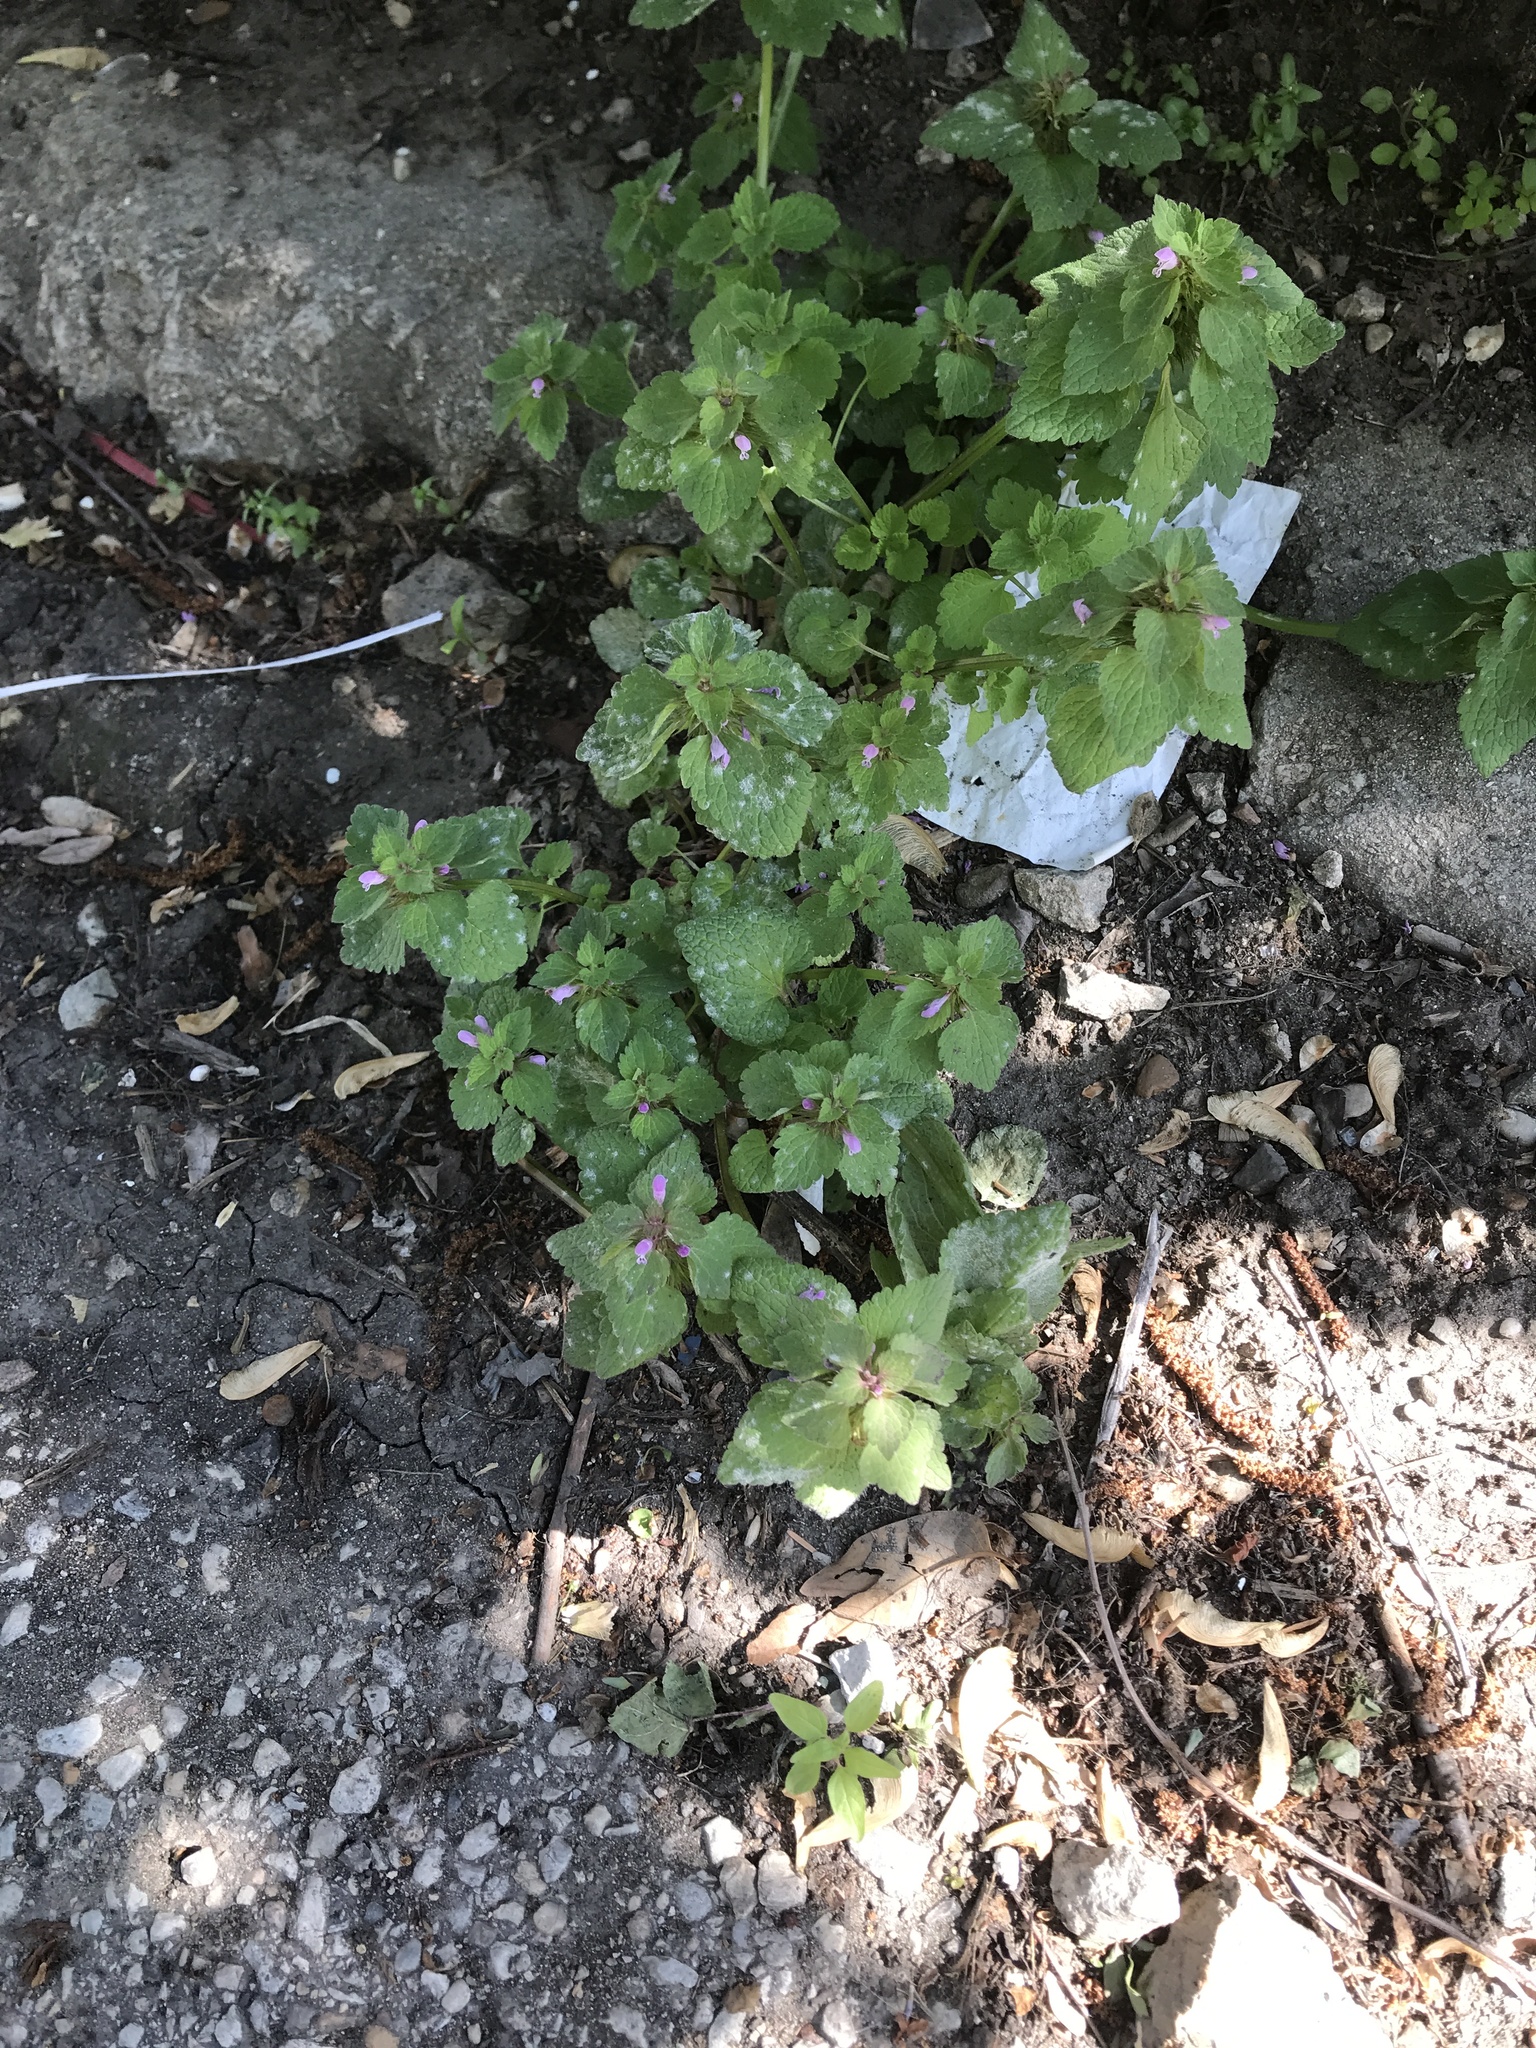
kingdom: Plantae
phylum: Tracheophyta
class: Magnoliopsida
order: Lamiales
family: Lamiaceae
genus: Lamium
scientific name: Lamium purpureum
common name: Red dead-nettle
